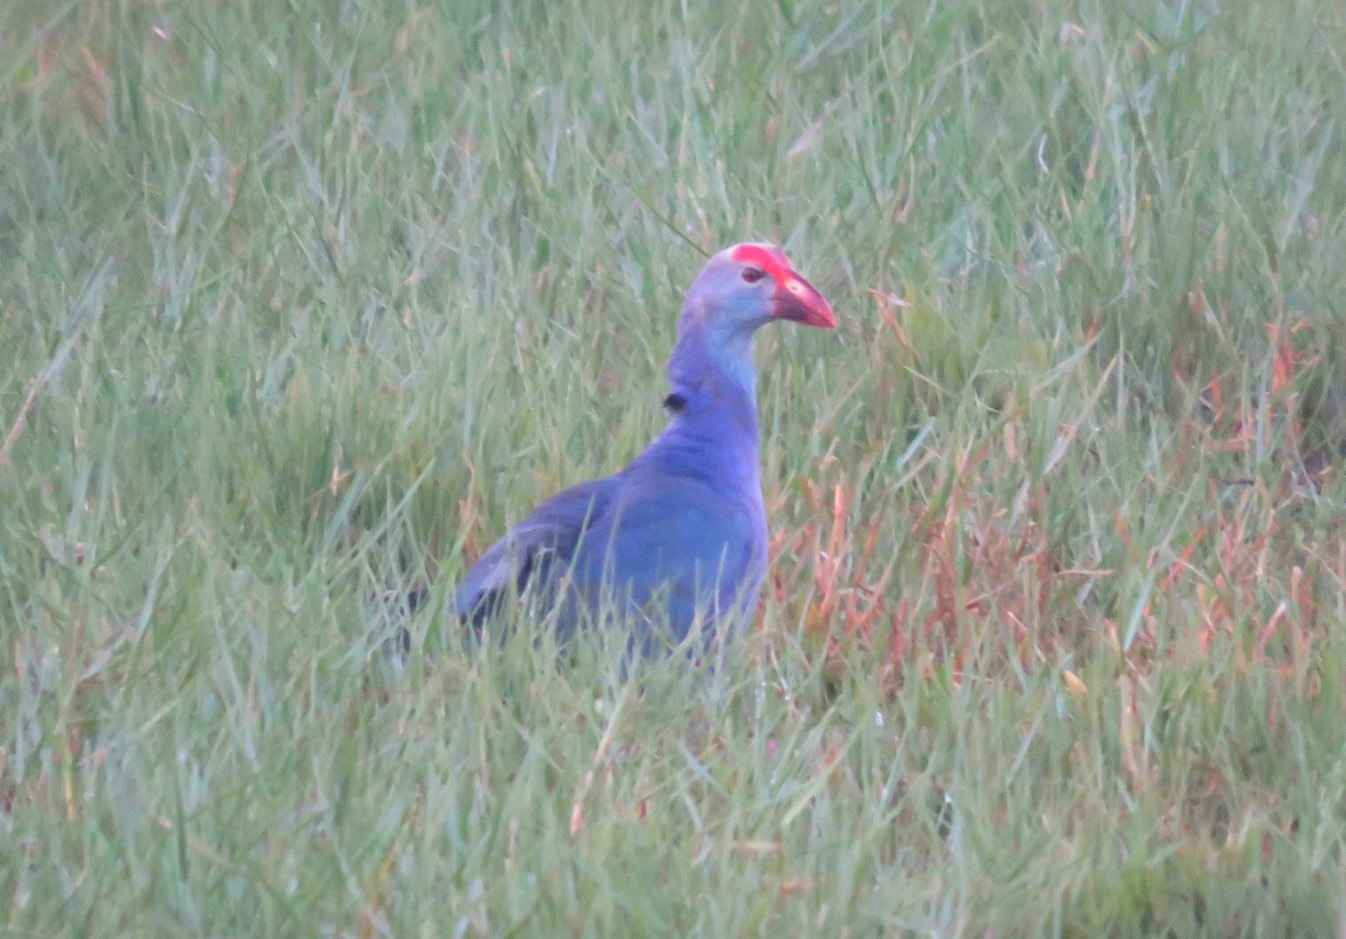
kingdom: Animalia
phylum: Chordata
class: Aves
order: Gruiformes
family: Rallidae
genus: Porphyrio
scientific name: Porphyrio porphyrio
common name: Purple swamphen
